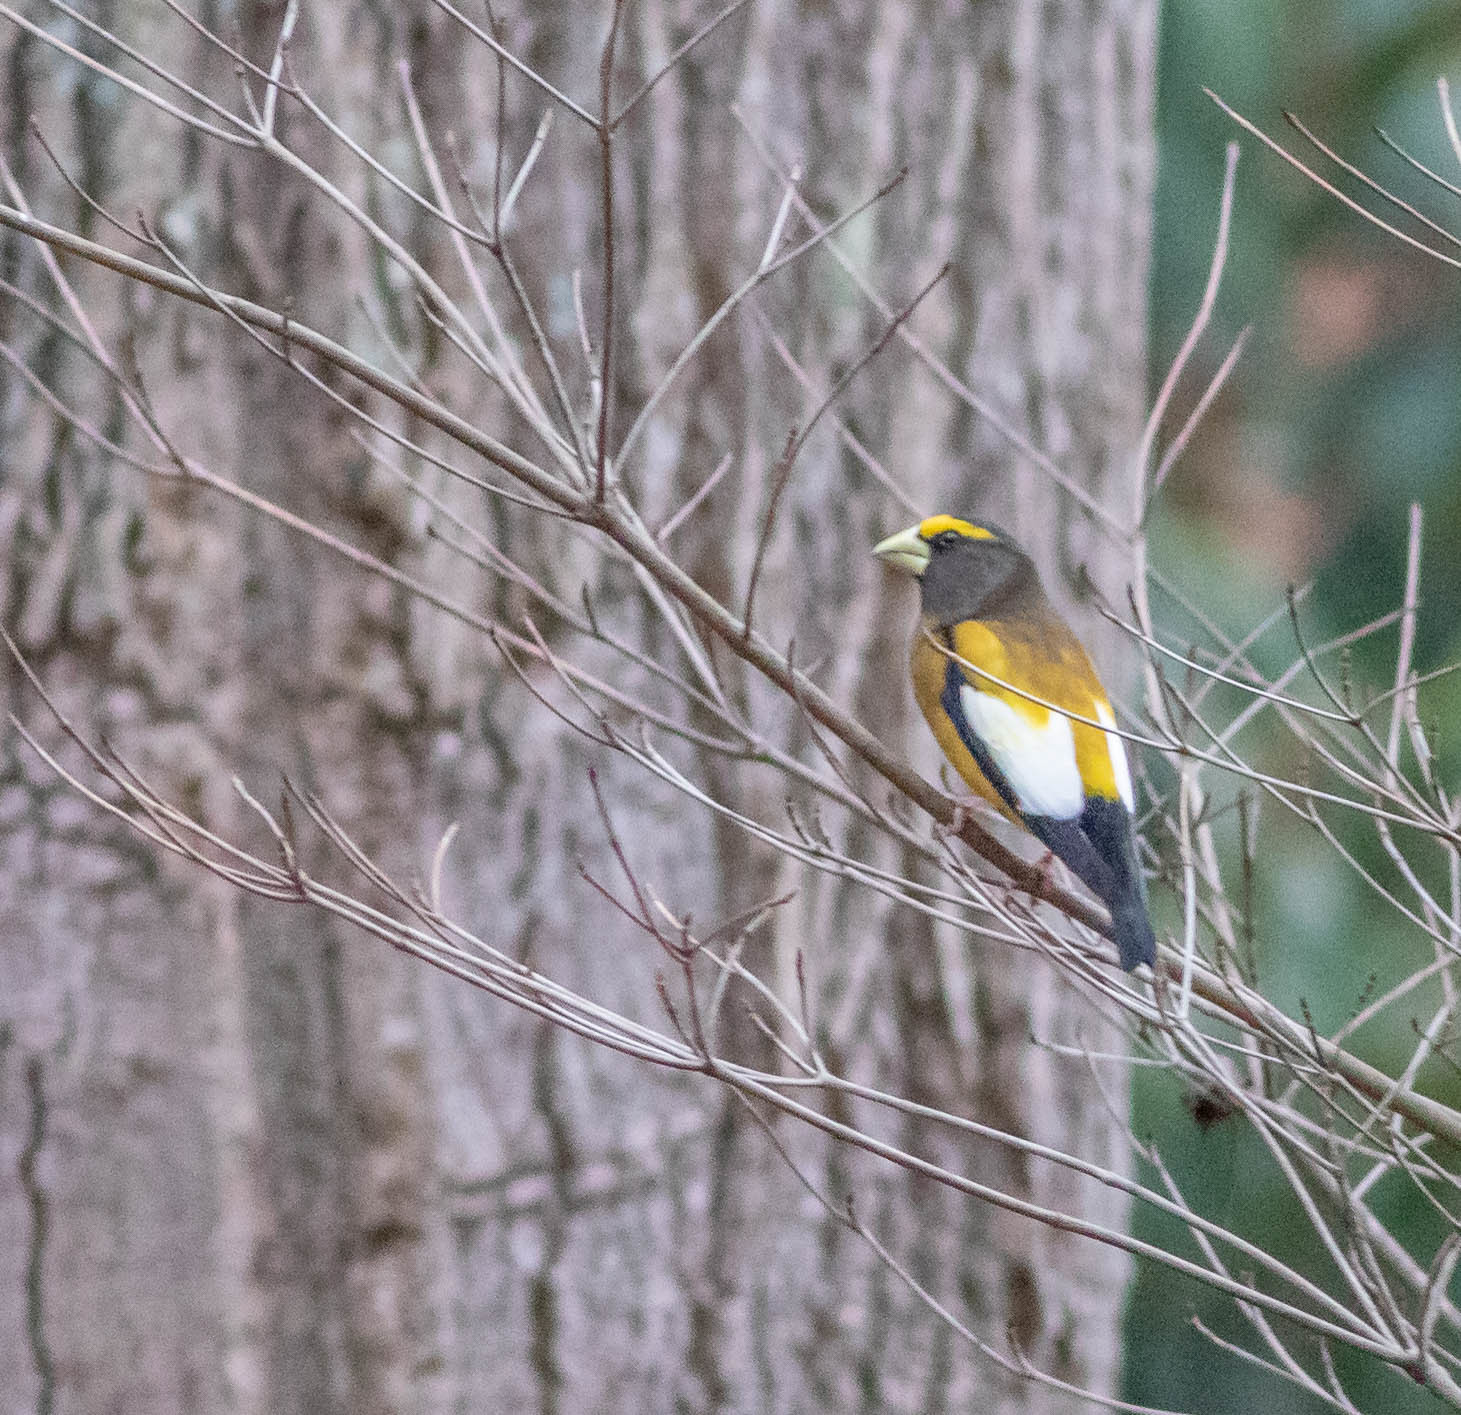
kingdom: Animalia
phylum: Chordata
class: Aves
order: Passeriformes
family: Fringillidae
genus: Hesperiphona
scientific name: Hesperiphona vespertina
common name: Evening grosbeak
